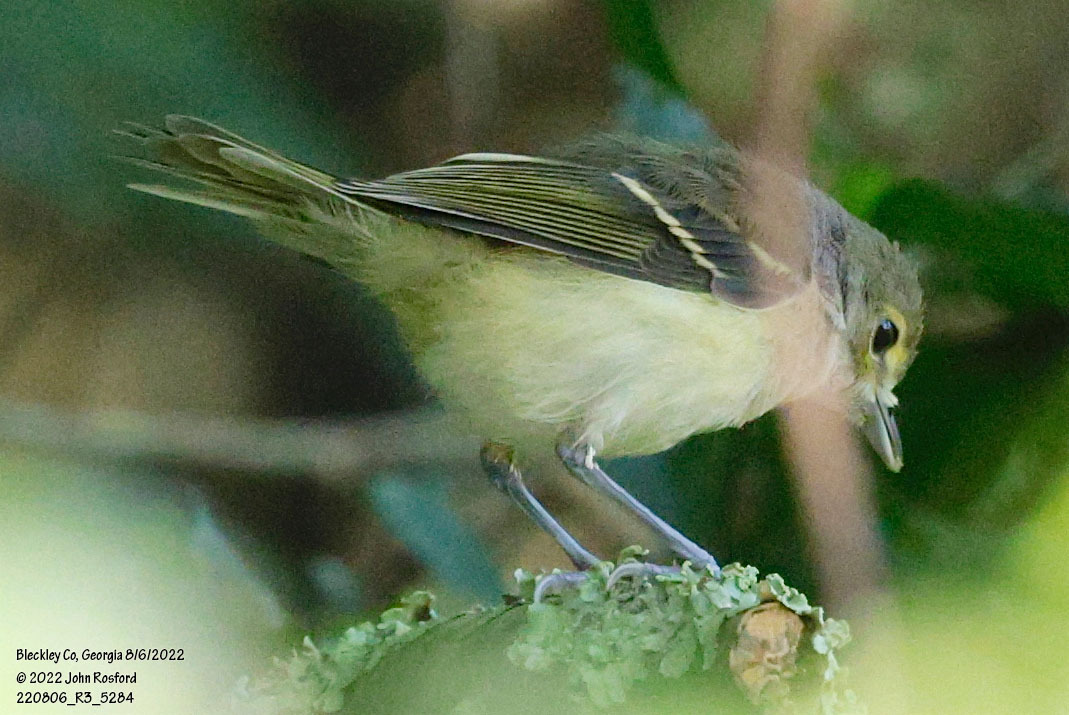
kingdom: Animalia
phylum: Chordata
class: Aves
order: Passeriformes
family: Vireonidae
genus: Vireo
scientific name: Vireo griseus
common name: White-eyed vireo
